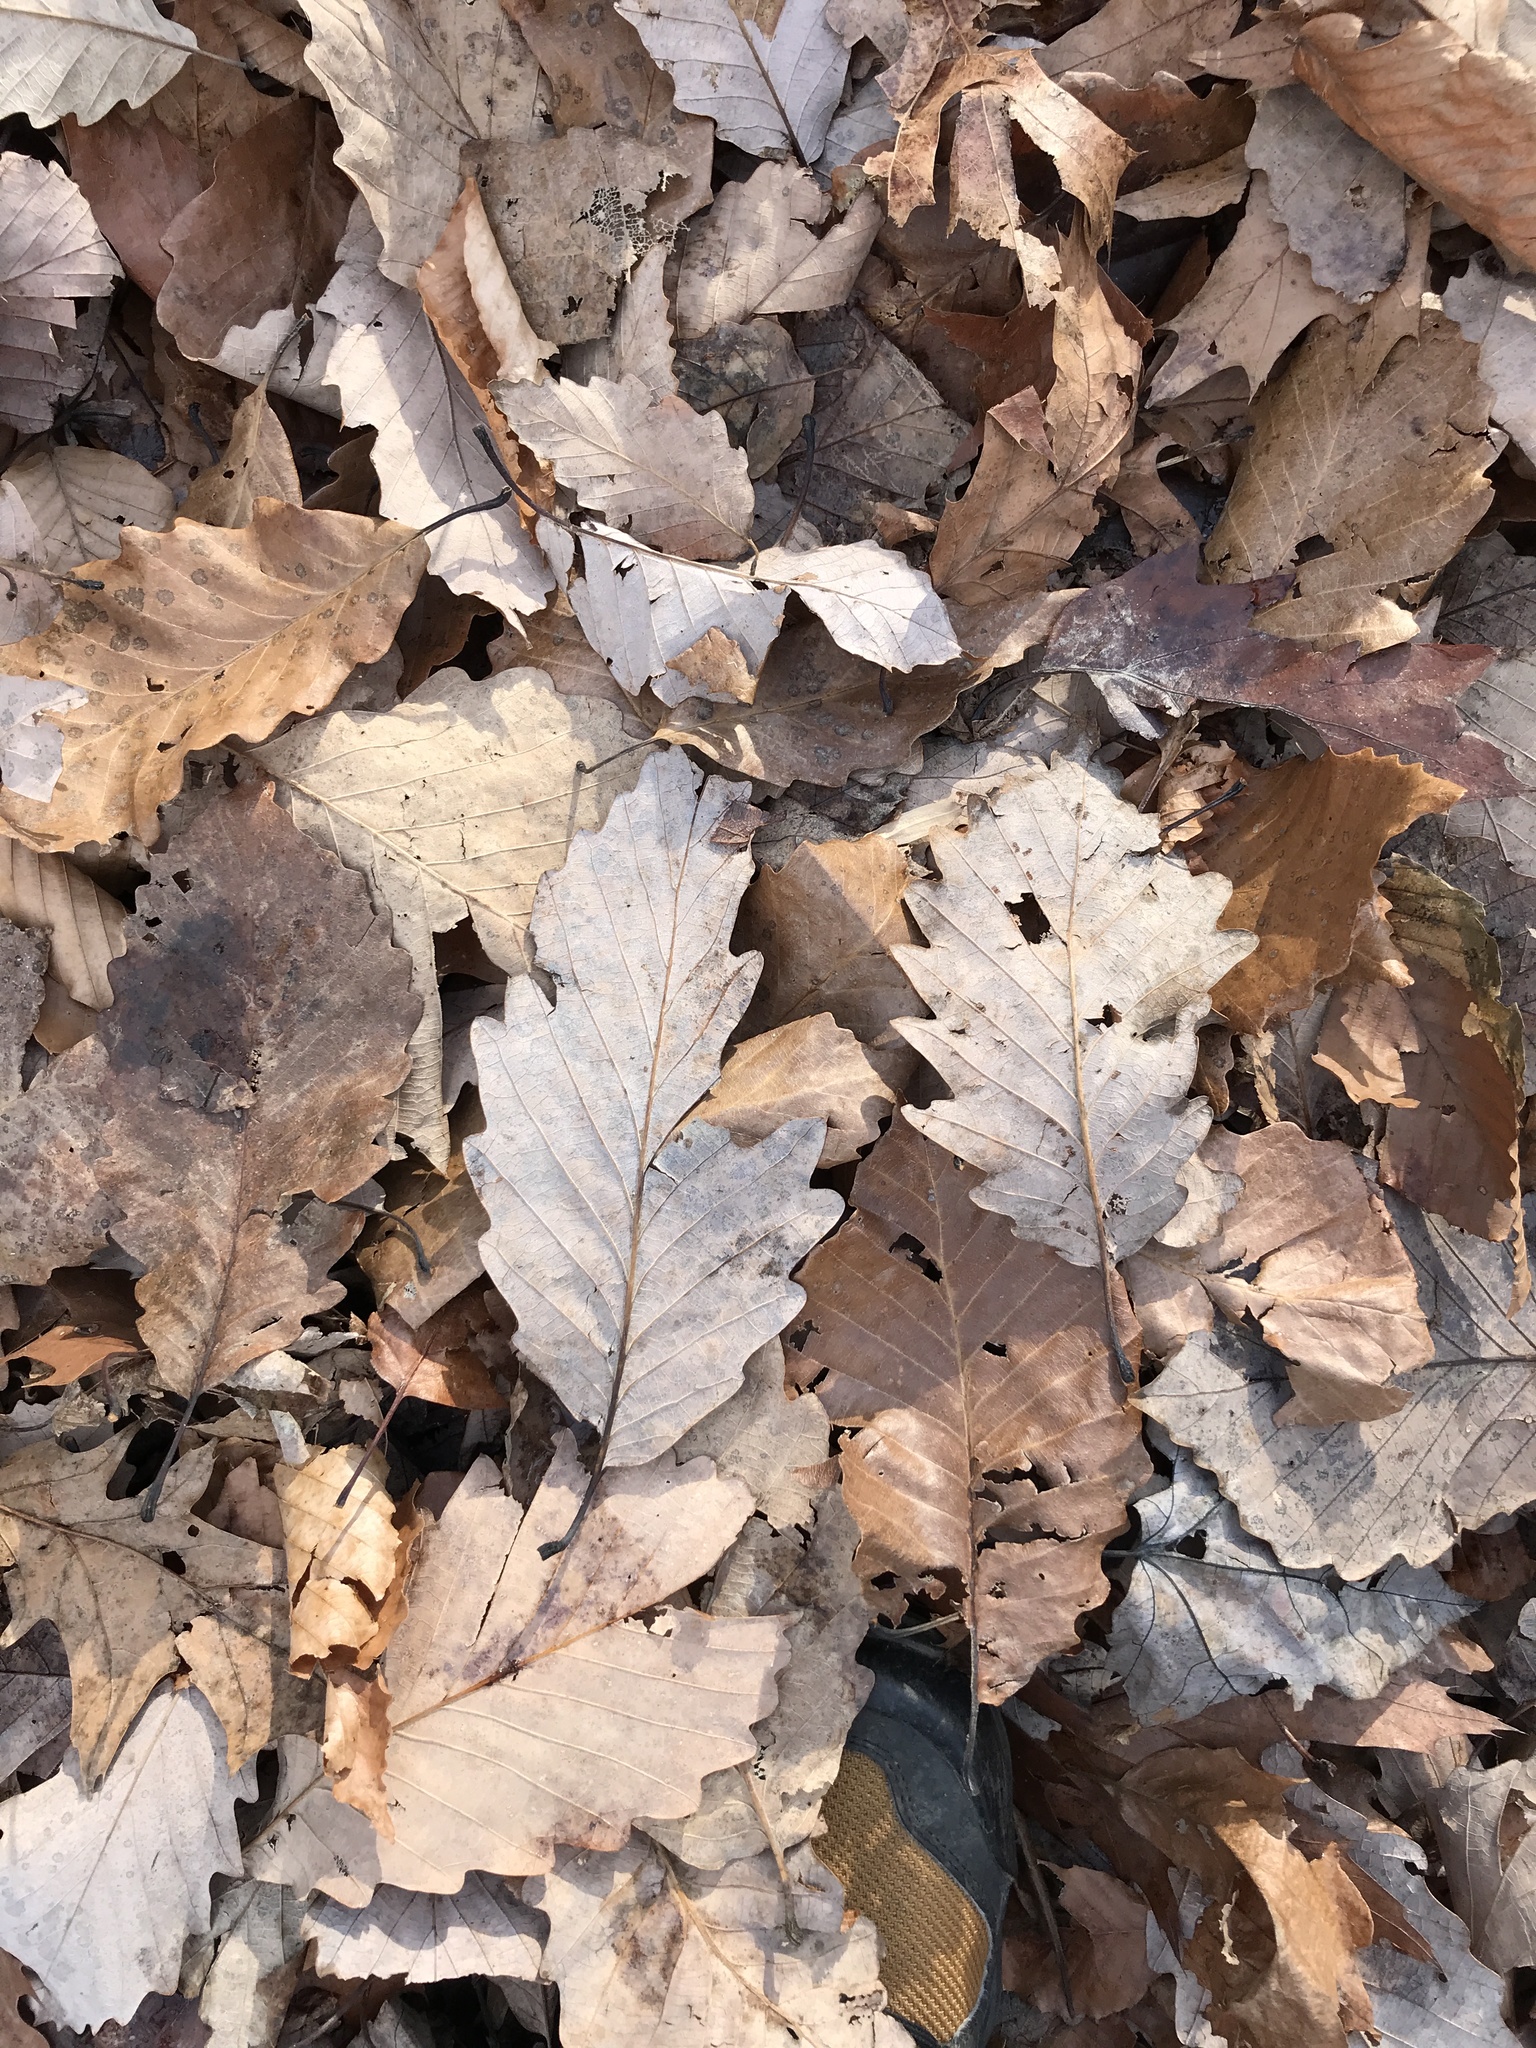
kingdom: Plantae
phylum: Tracheophyta
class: Magnoliopsida
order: Fagales
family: Fagaceae
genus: Quercus
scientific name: Quercus montana
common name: Chestnut oak
